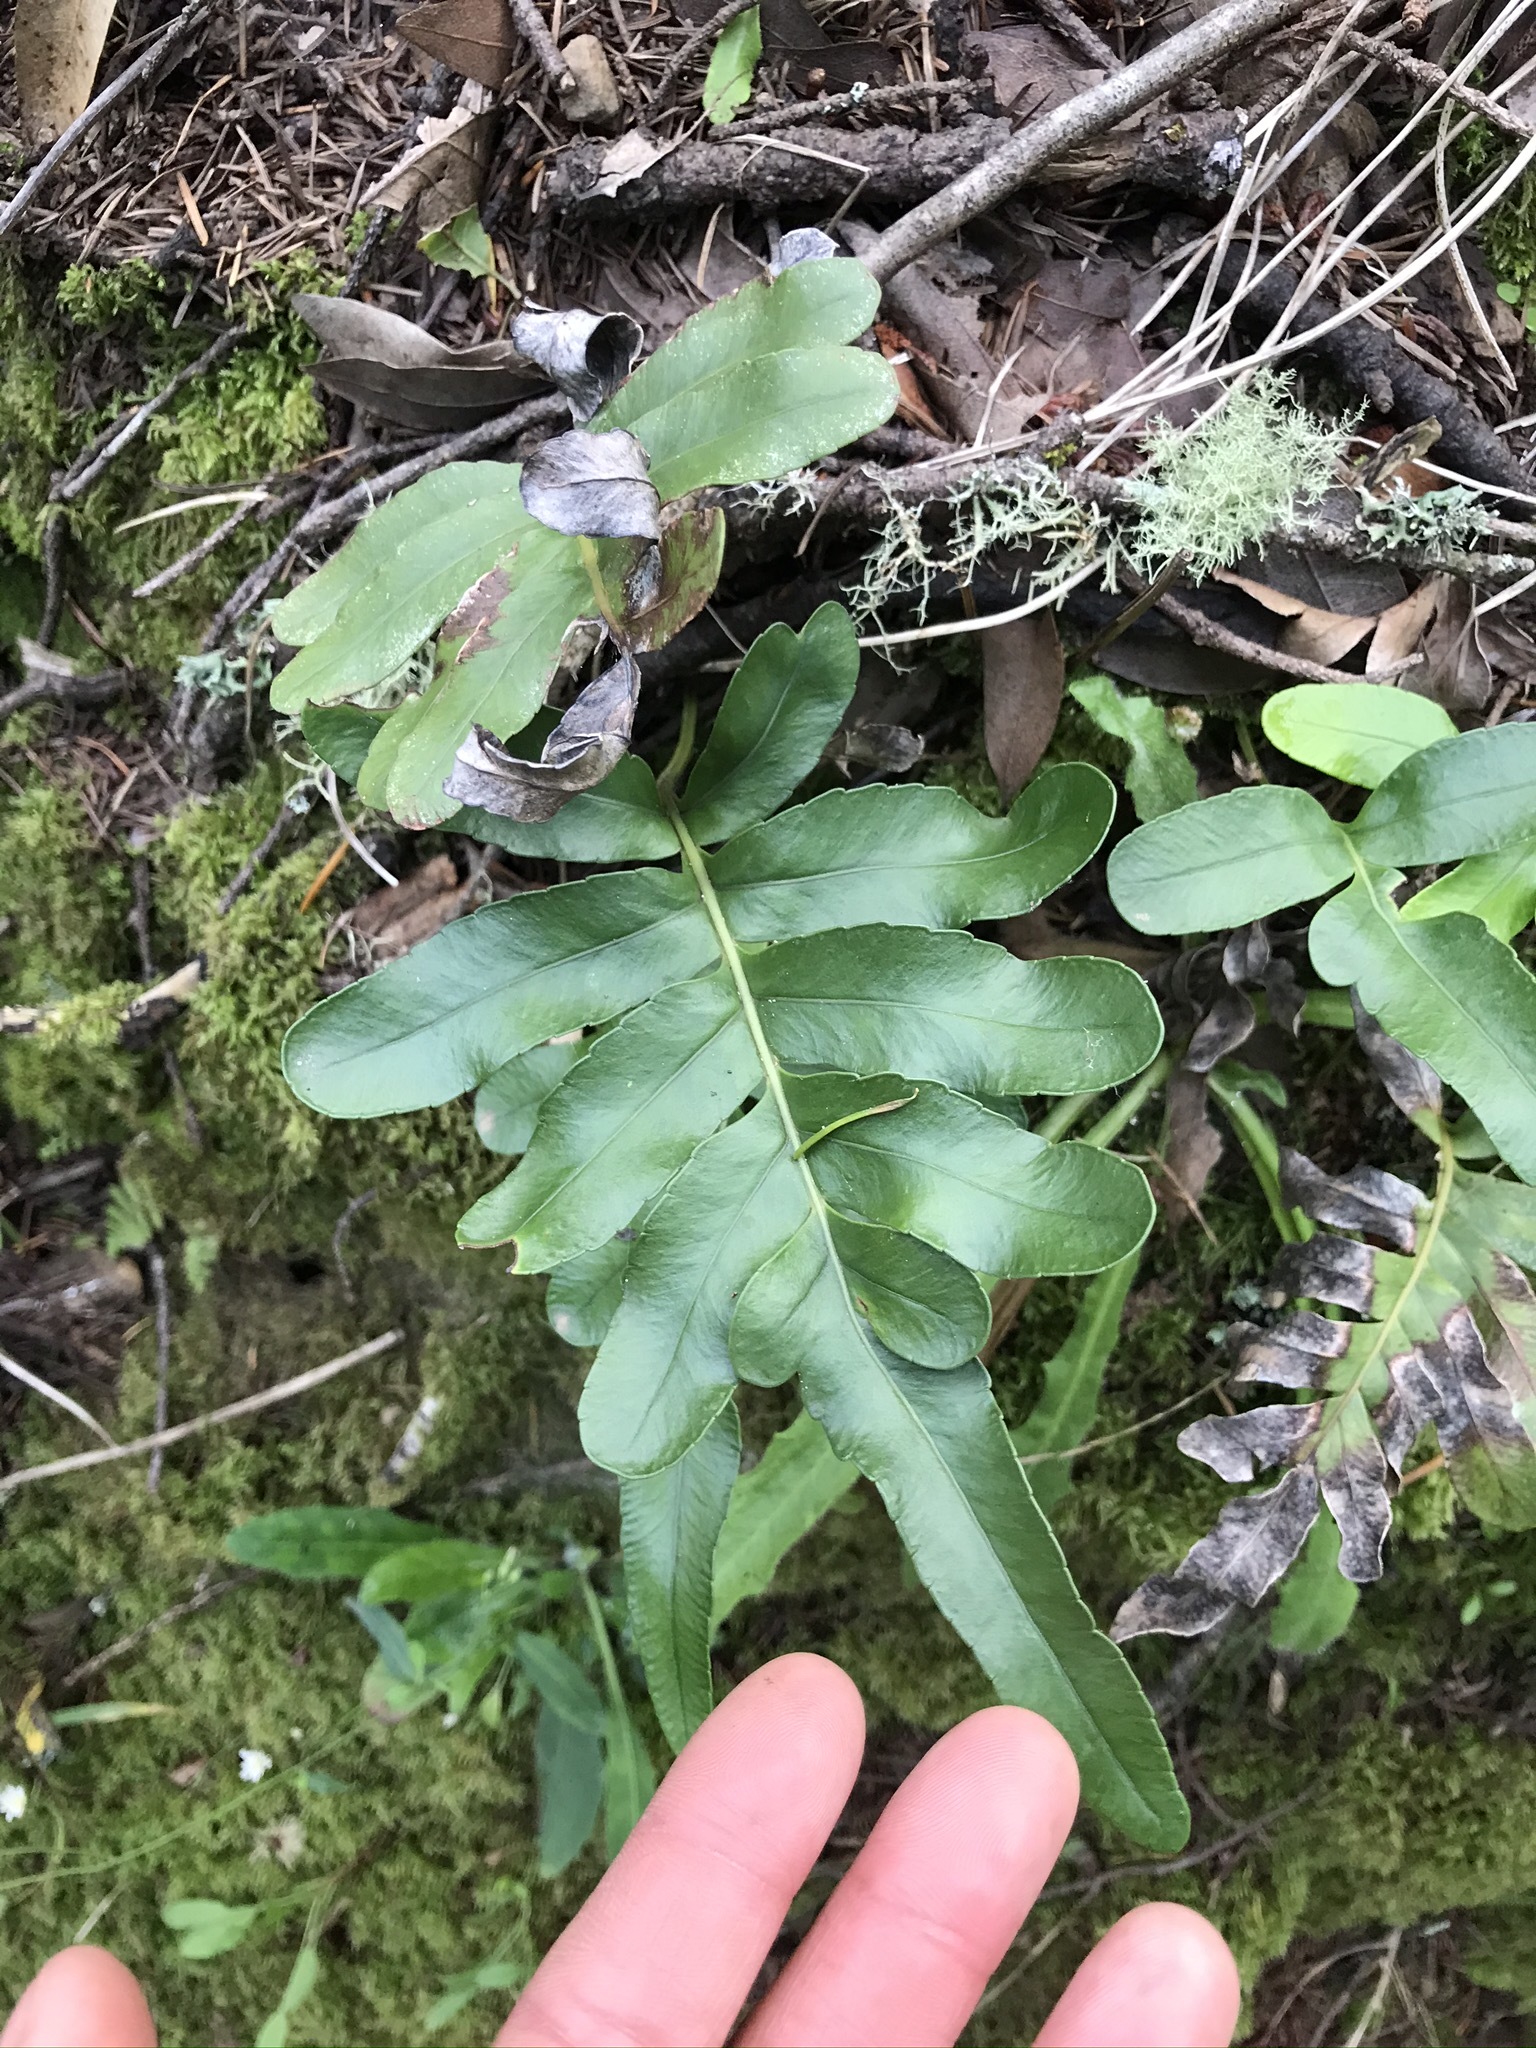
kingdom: Plantae
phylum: Tracheophyta
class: Polypodiopsida
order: Polypodiales
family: Polypodiaceae
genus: Polypodium
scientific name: Polypodium scouleri
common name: Scouler's polypody
